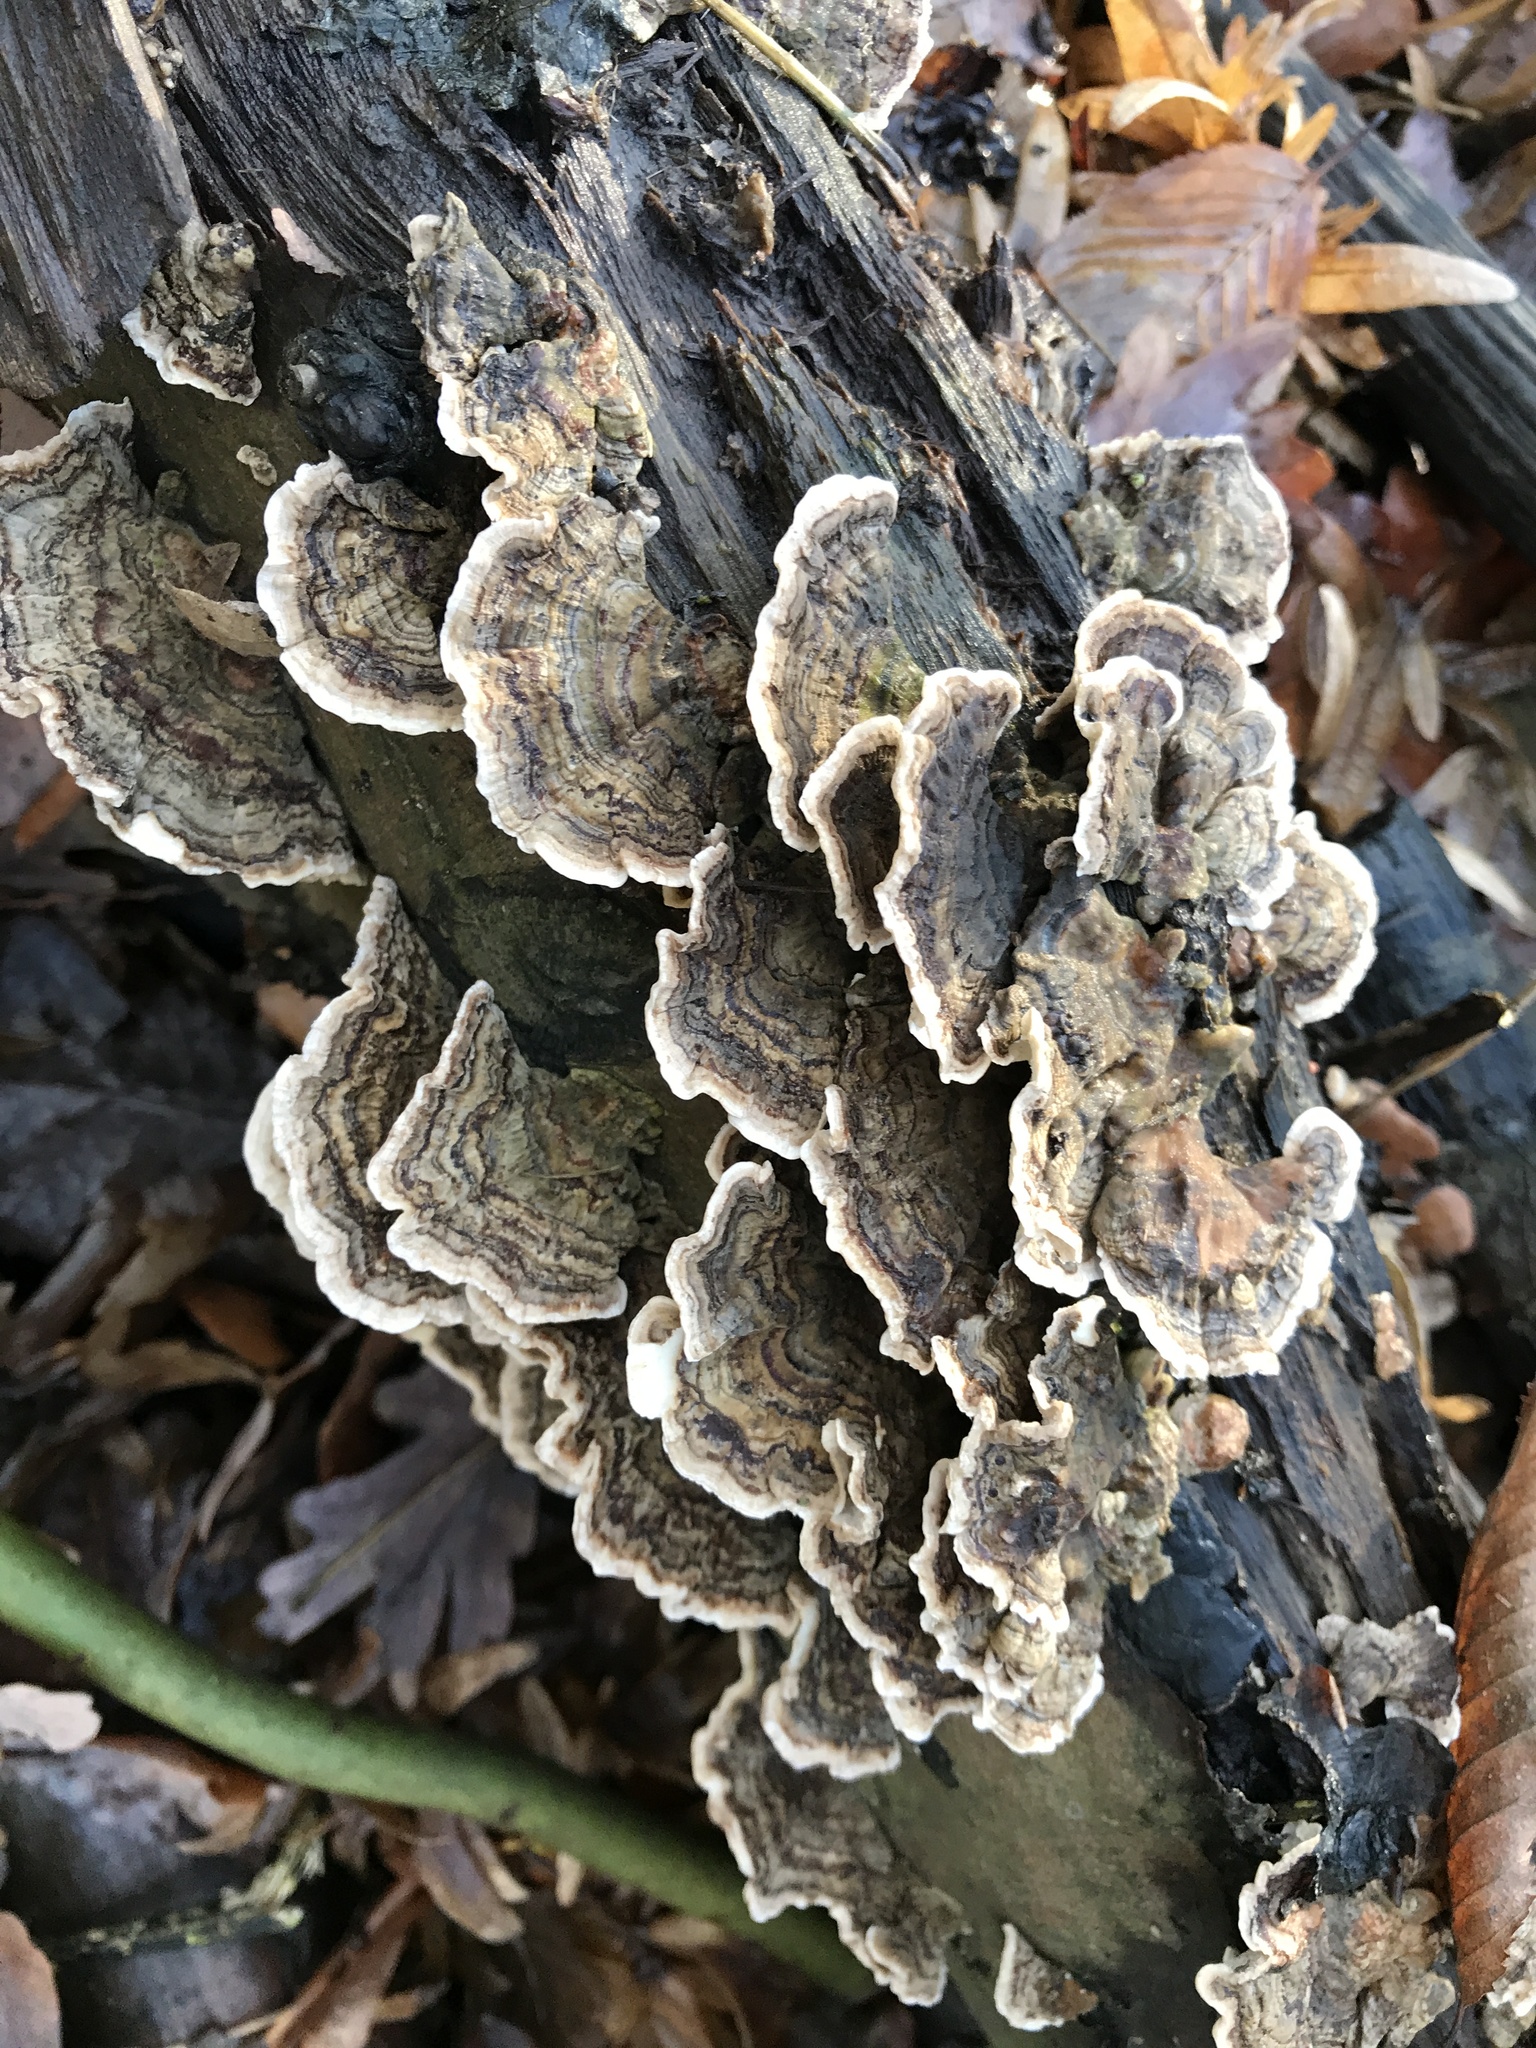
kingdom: Fungi
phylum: Basidiomycota
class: Agaricomycetes
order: Polyporales
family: Polyporaceae
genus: Trametes
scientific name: Trametes versicolor
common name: Turkeytail
